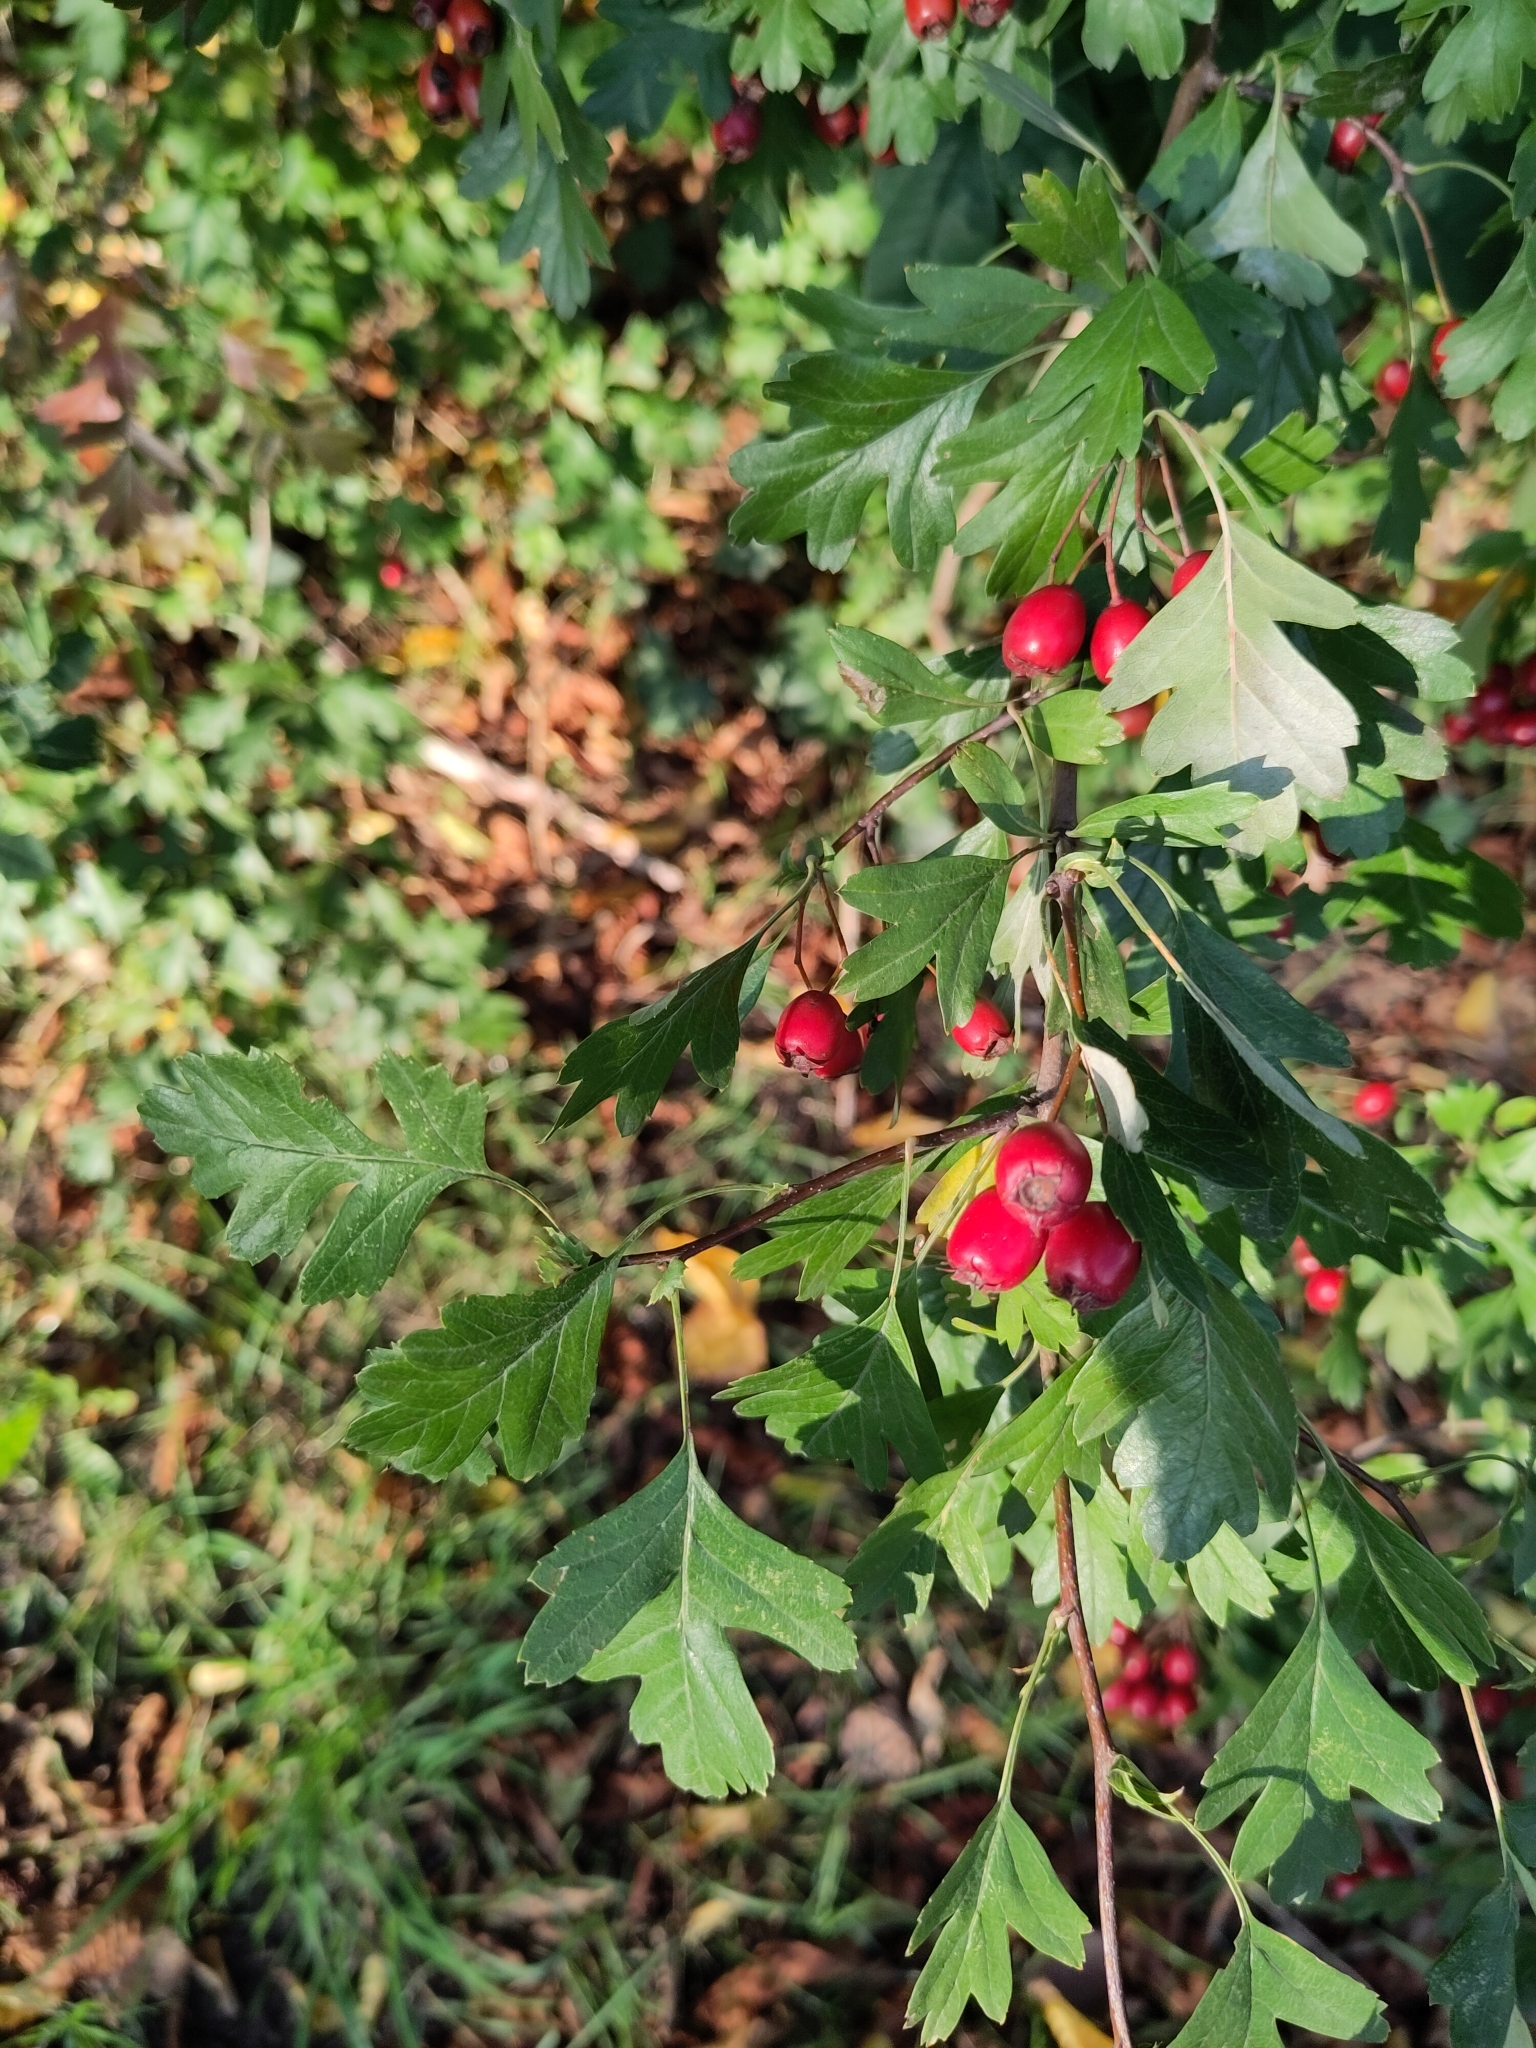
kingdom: Plantae
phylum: Tracheophyta
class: Magnoliopsida
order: Rosales
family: Rosaceae
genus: Crataegus
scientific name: Crataegus monogyna
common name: Hawthorn
